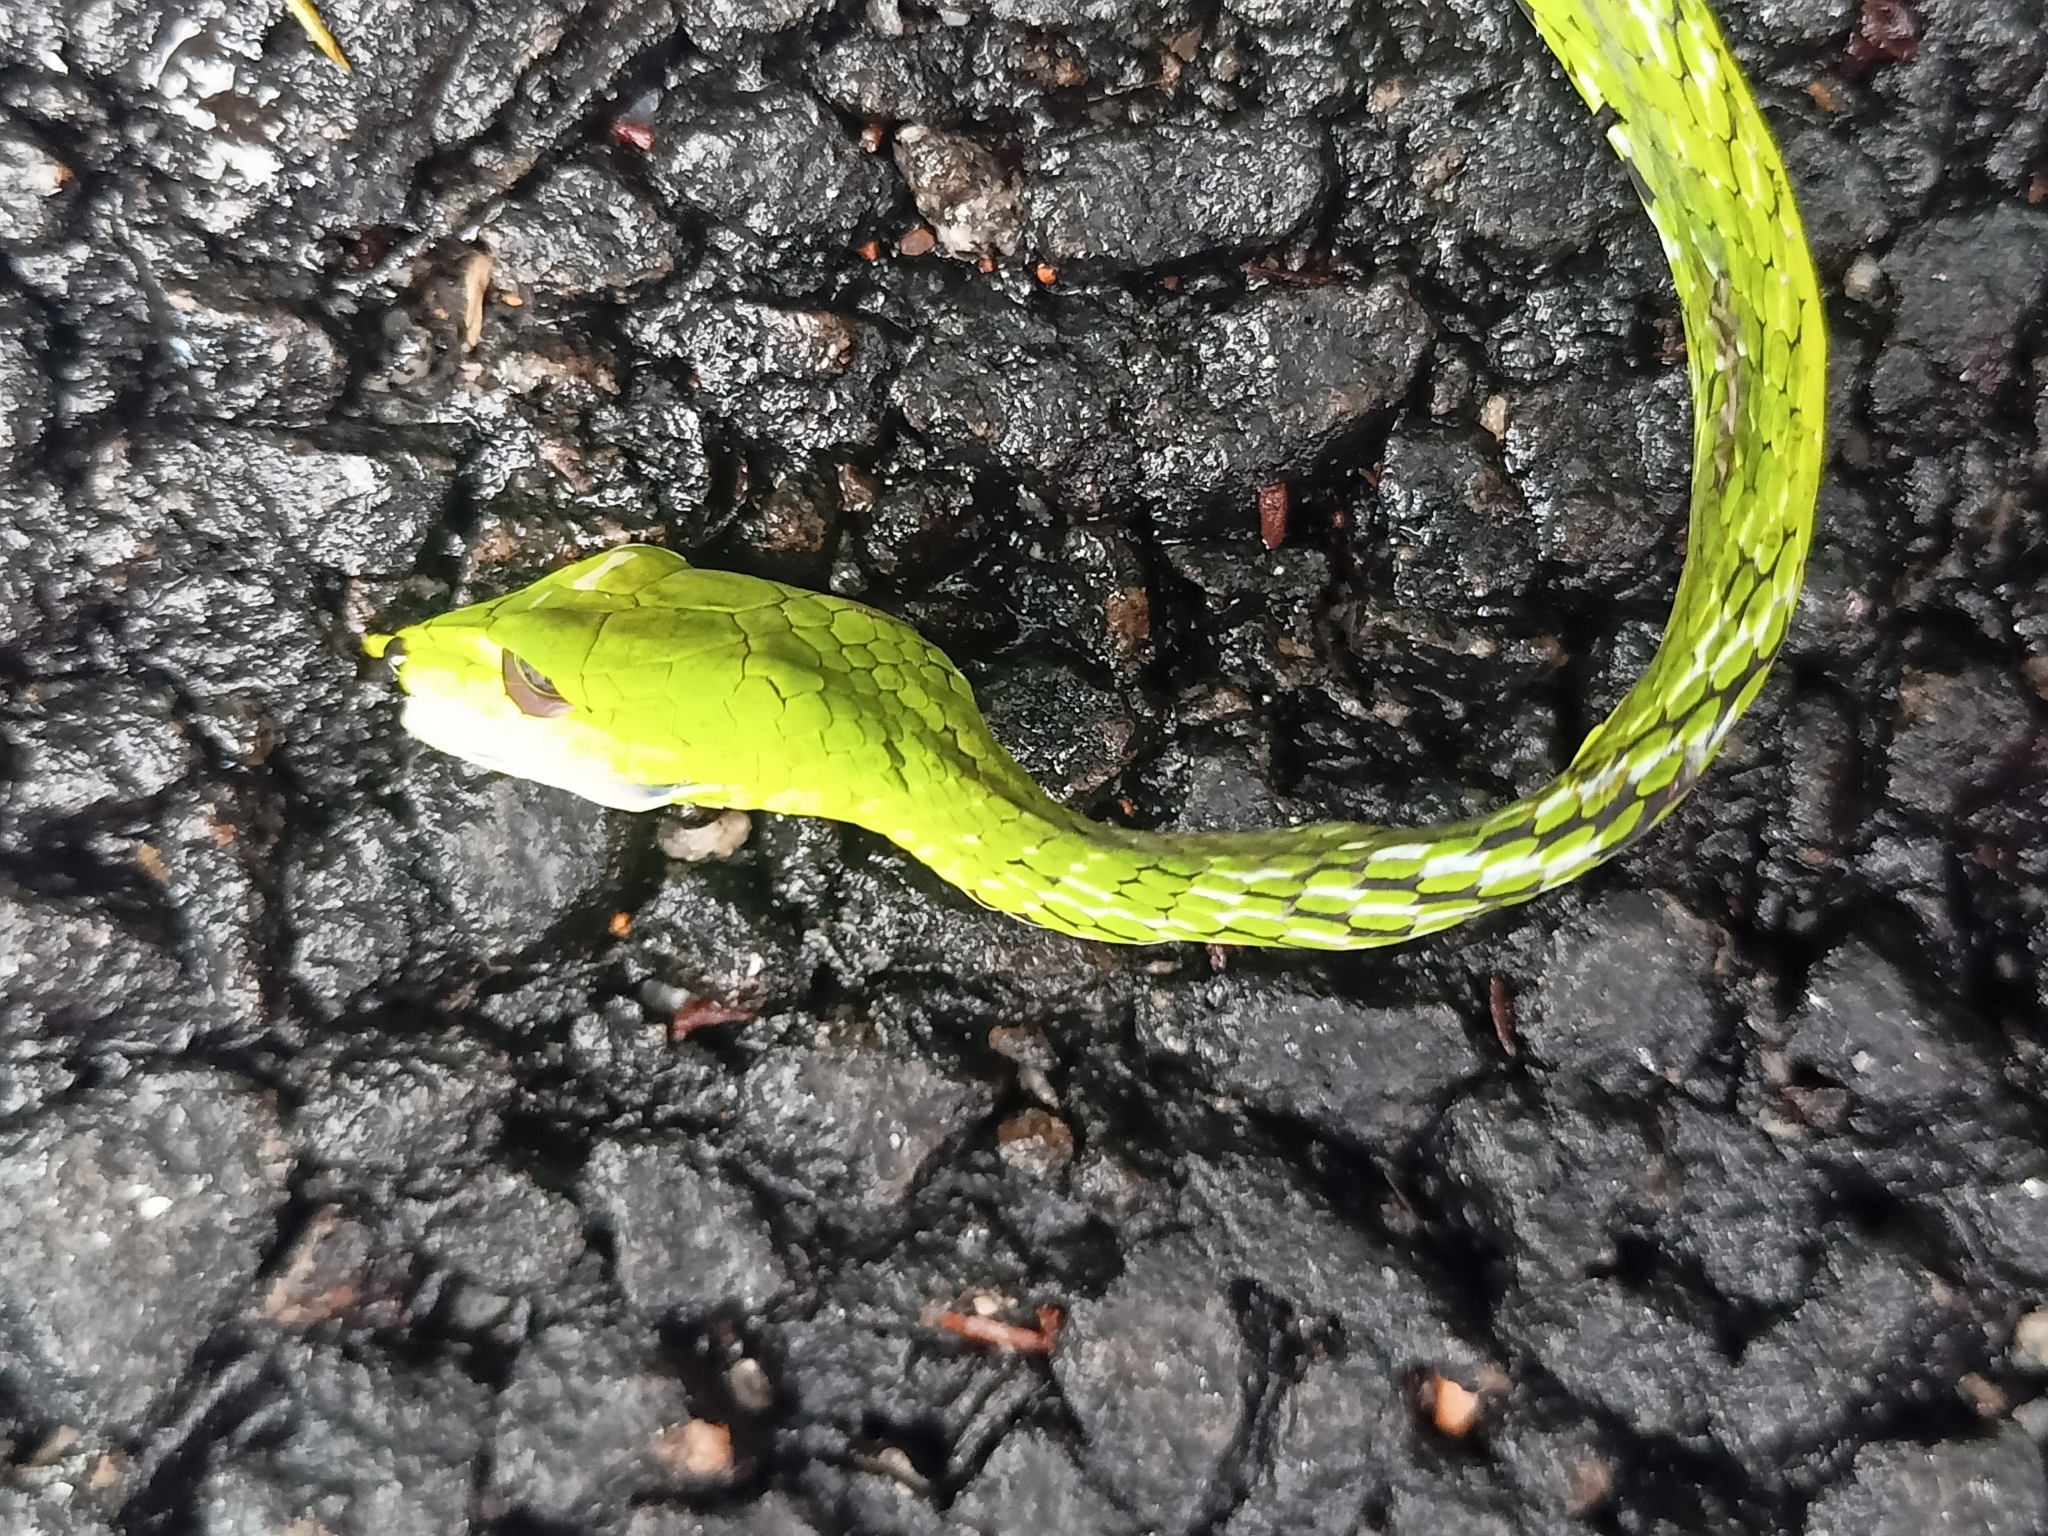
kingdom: Animalia
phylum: Chordata
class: Squamata
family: Colubridae
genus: Ahaetulla
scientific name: Ahaetulla farnsworthi
